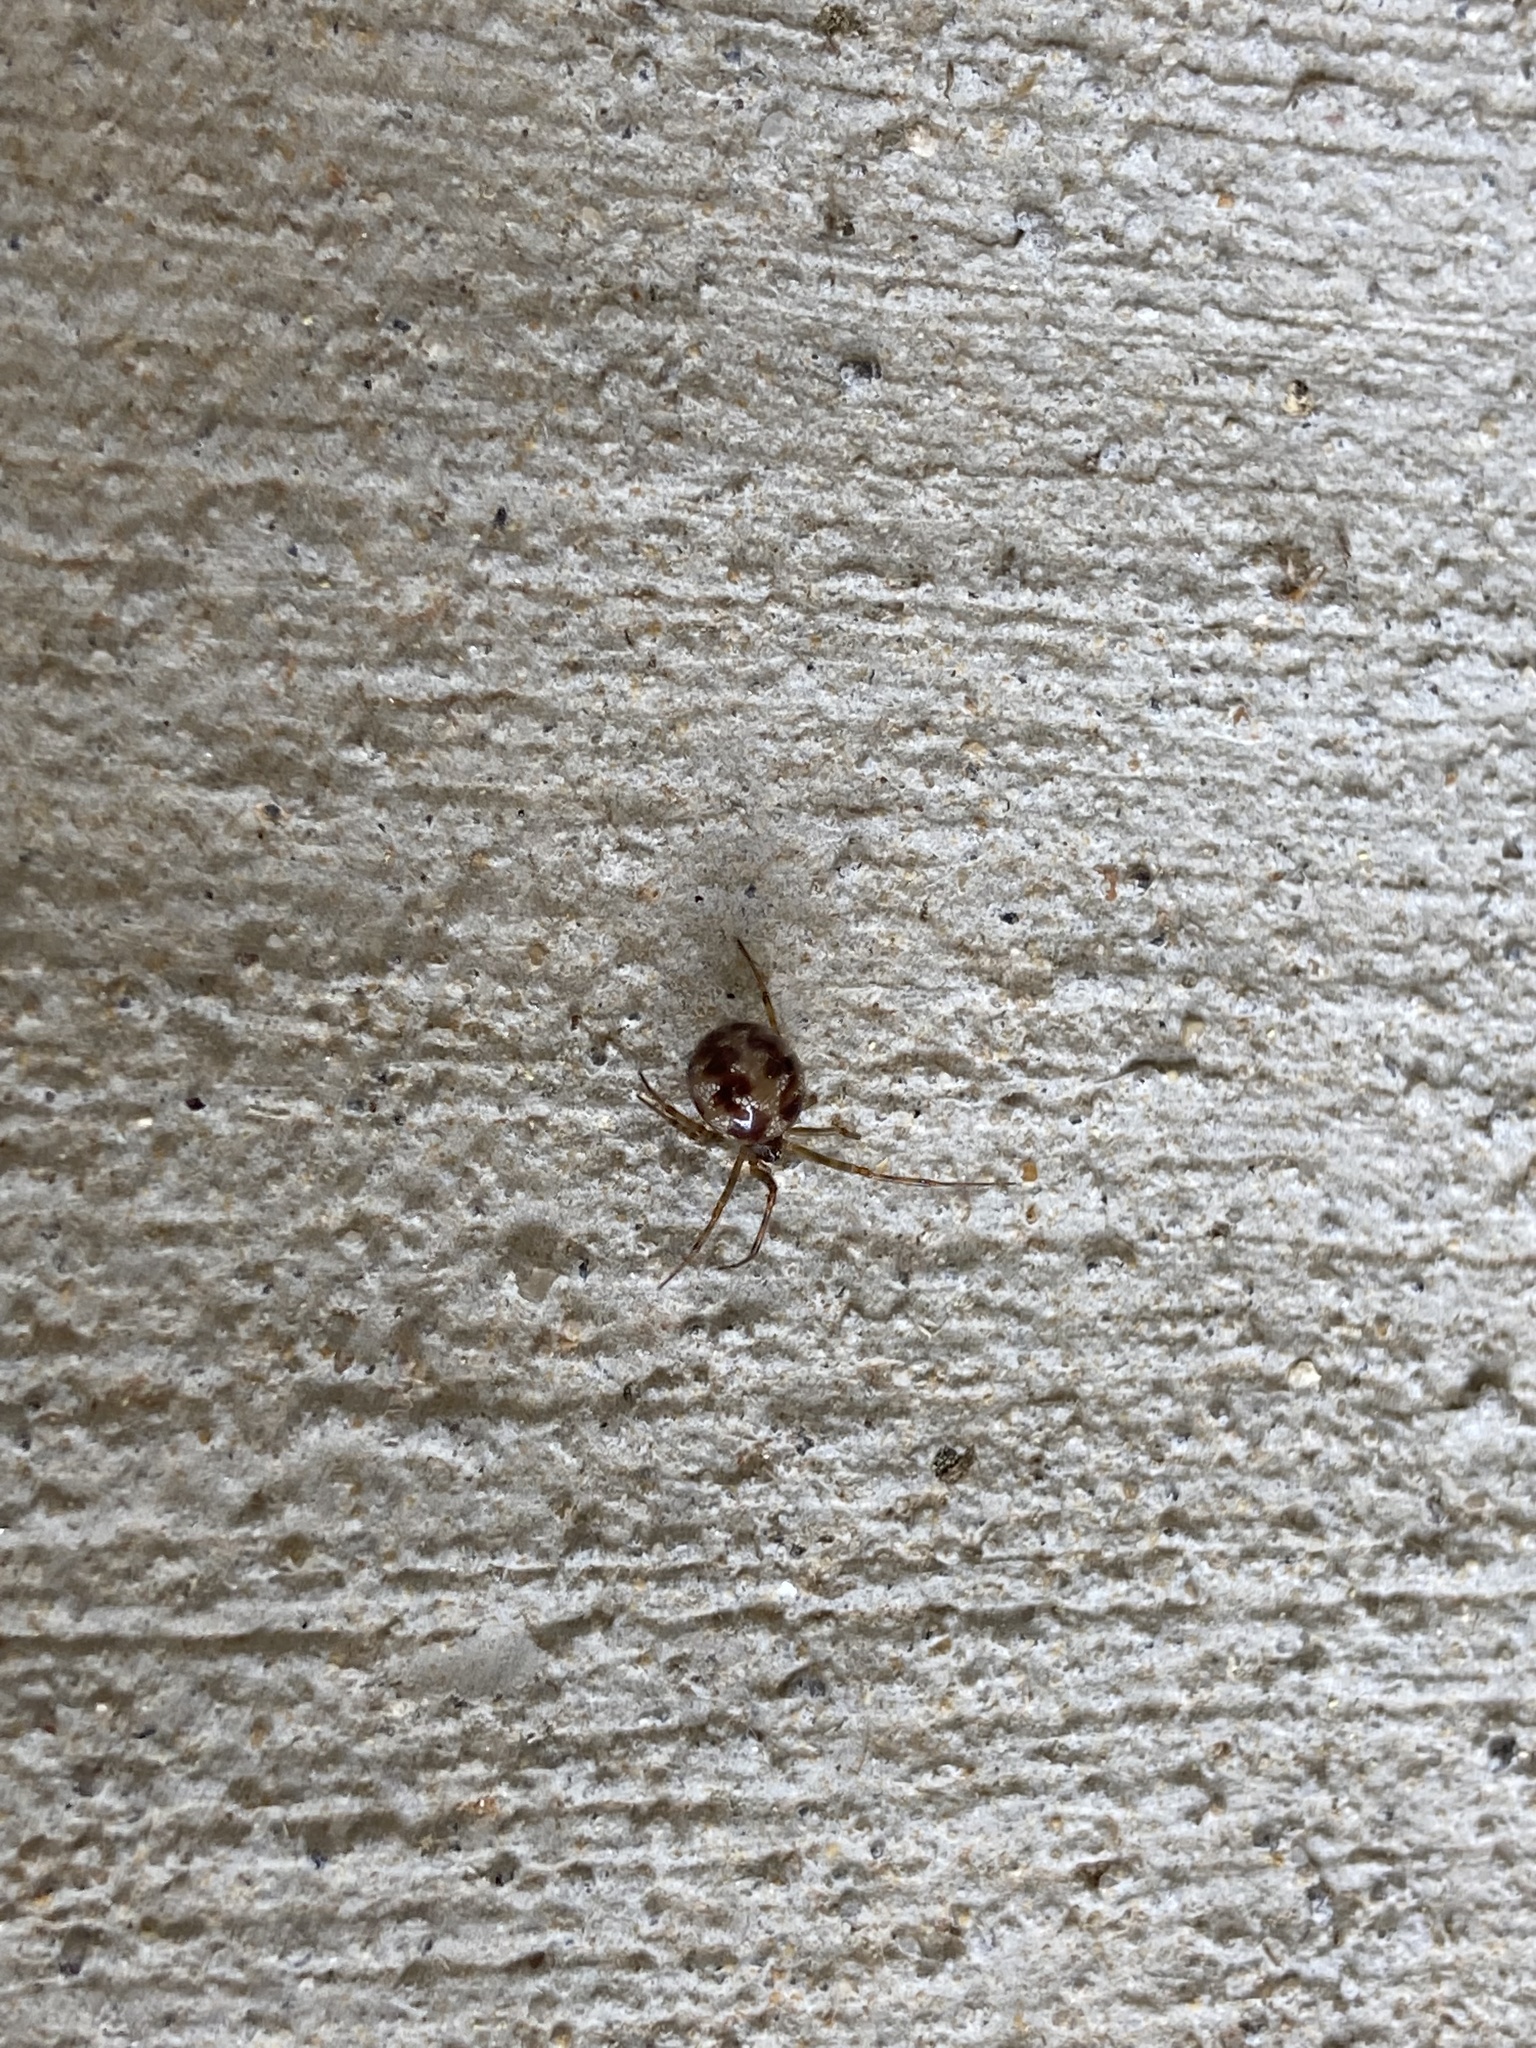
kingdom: Animalia
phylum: Arthropoda
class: Arachnida
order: Araneae
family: Theridiidae
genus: Steatoda
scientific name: Steatoda triangulosa
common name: Triangulate bud spider
